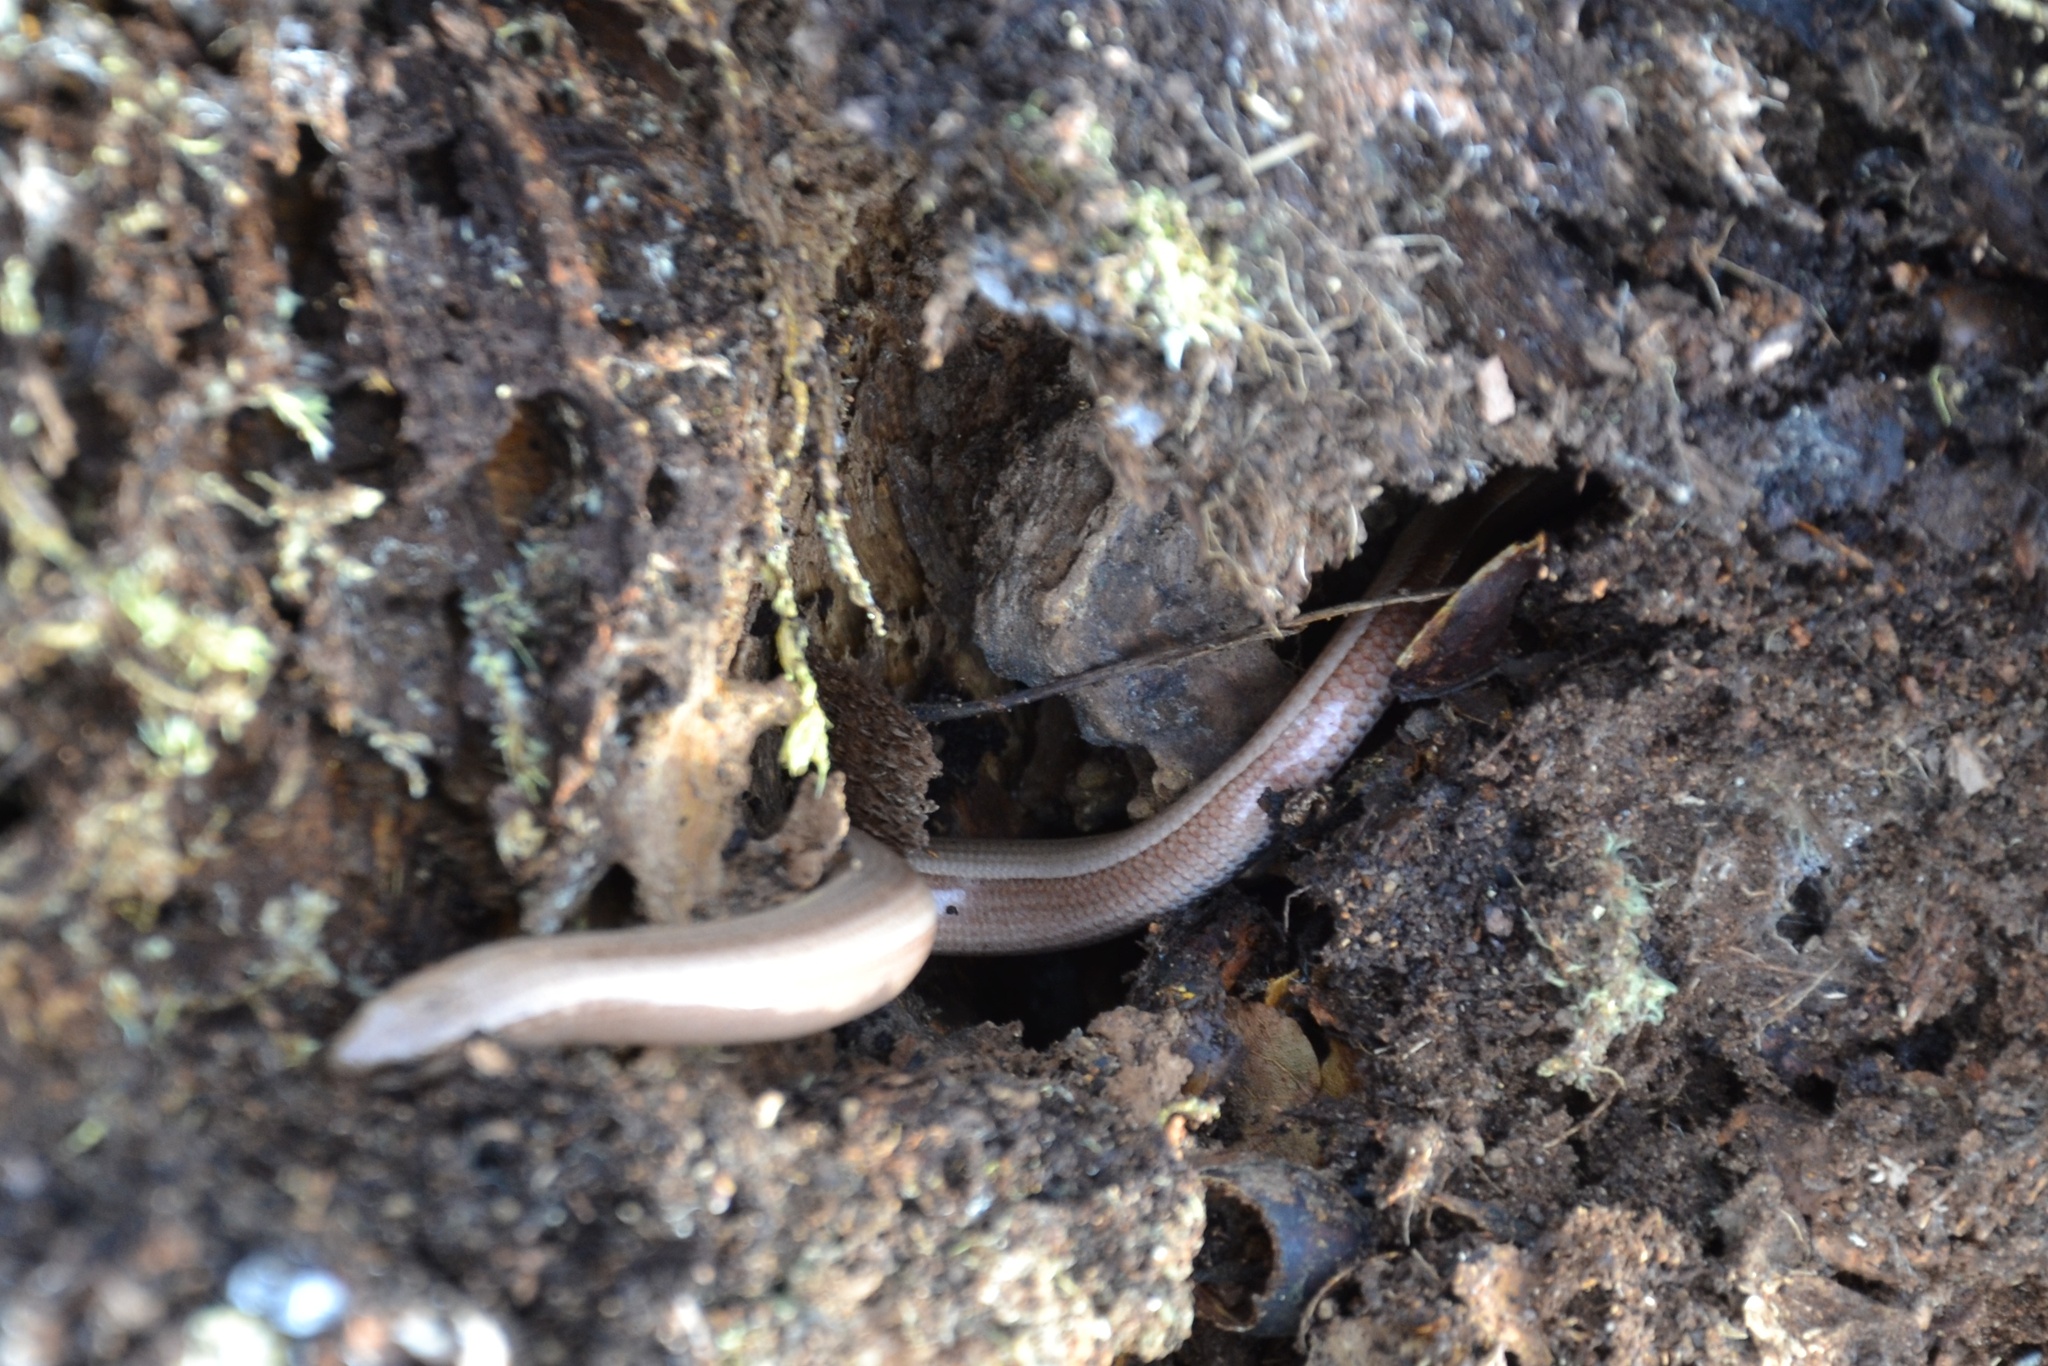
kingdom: Animalia
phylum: Chordata
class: Squamata
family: Anguidae
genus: Anguis
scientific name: Anguis fragilis
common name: Slow worm
